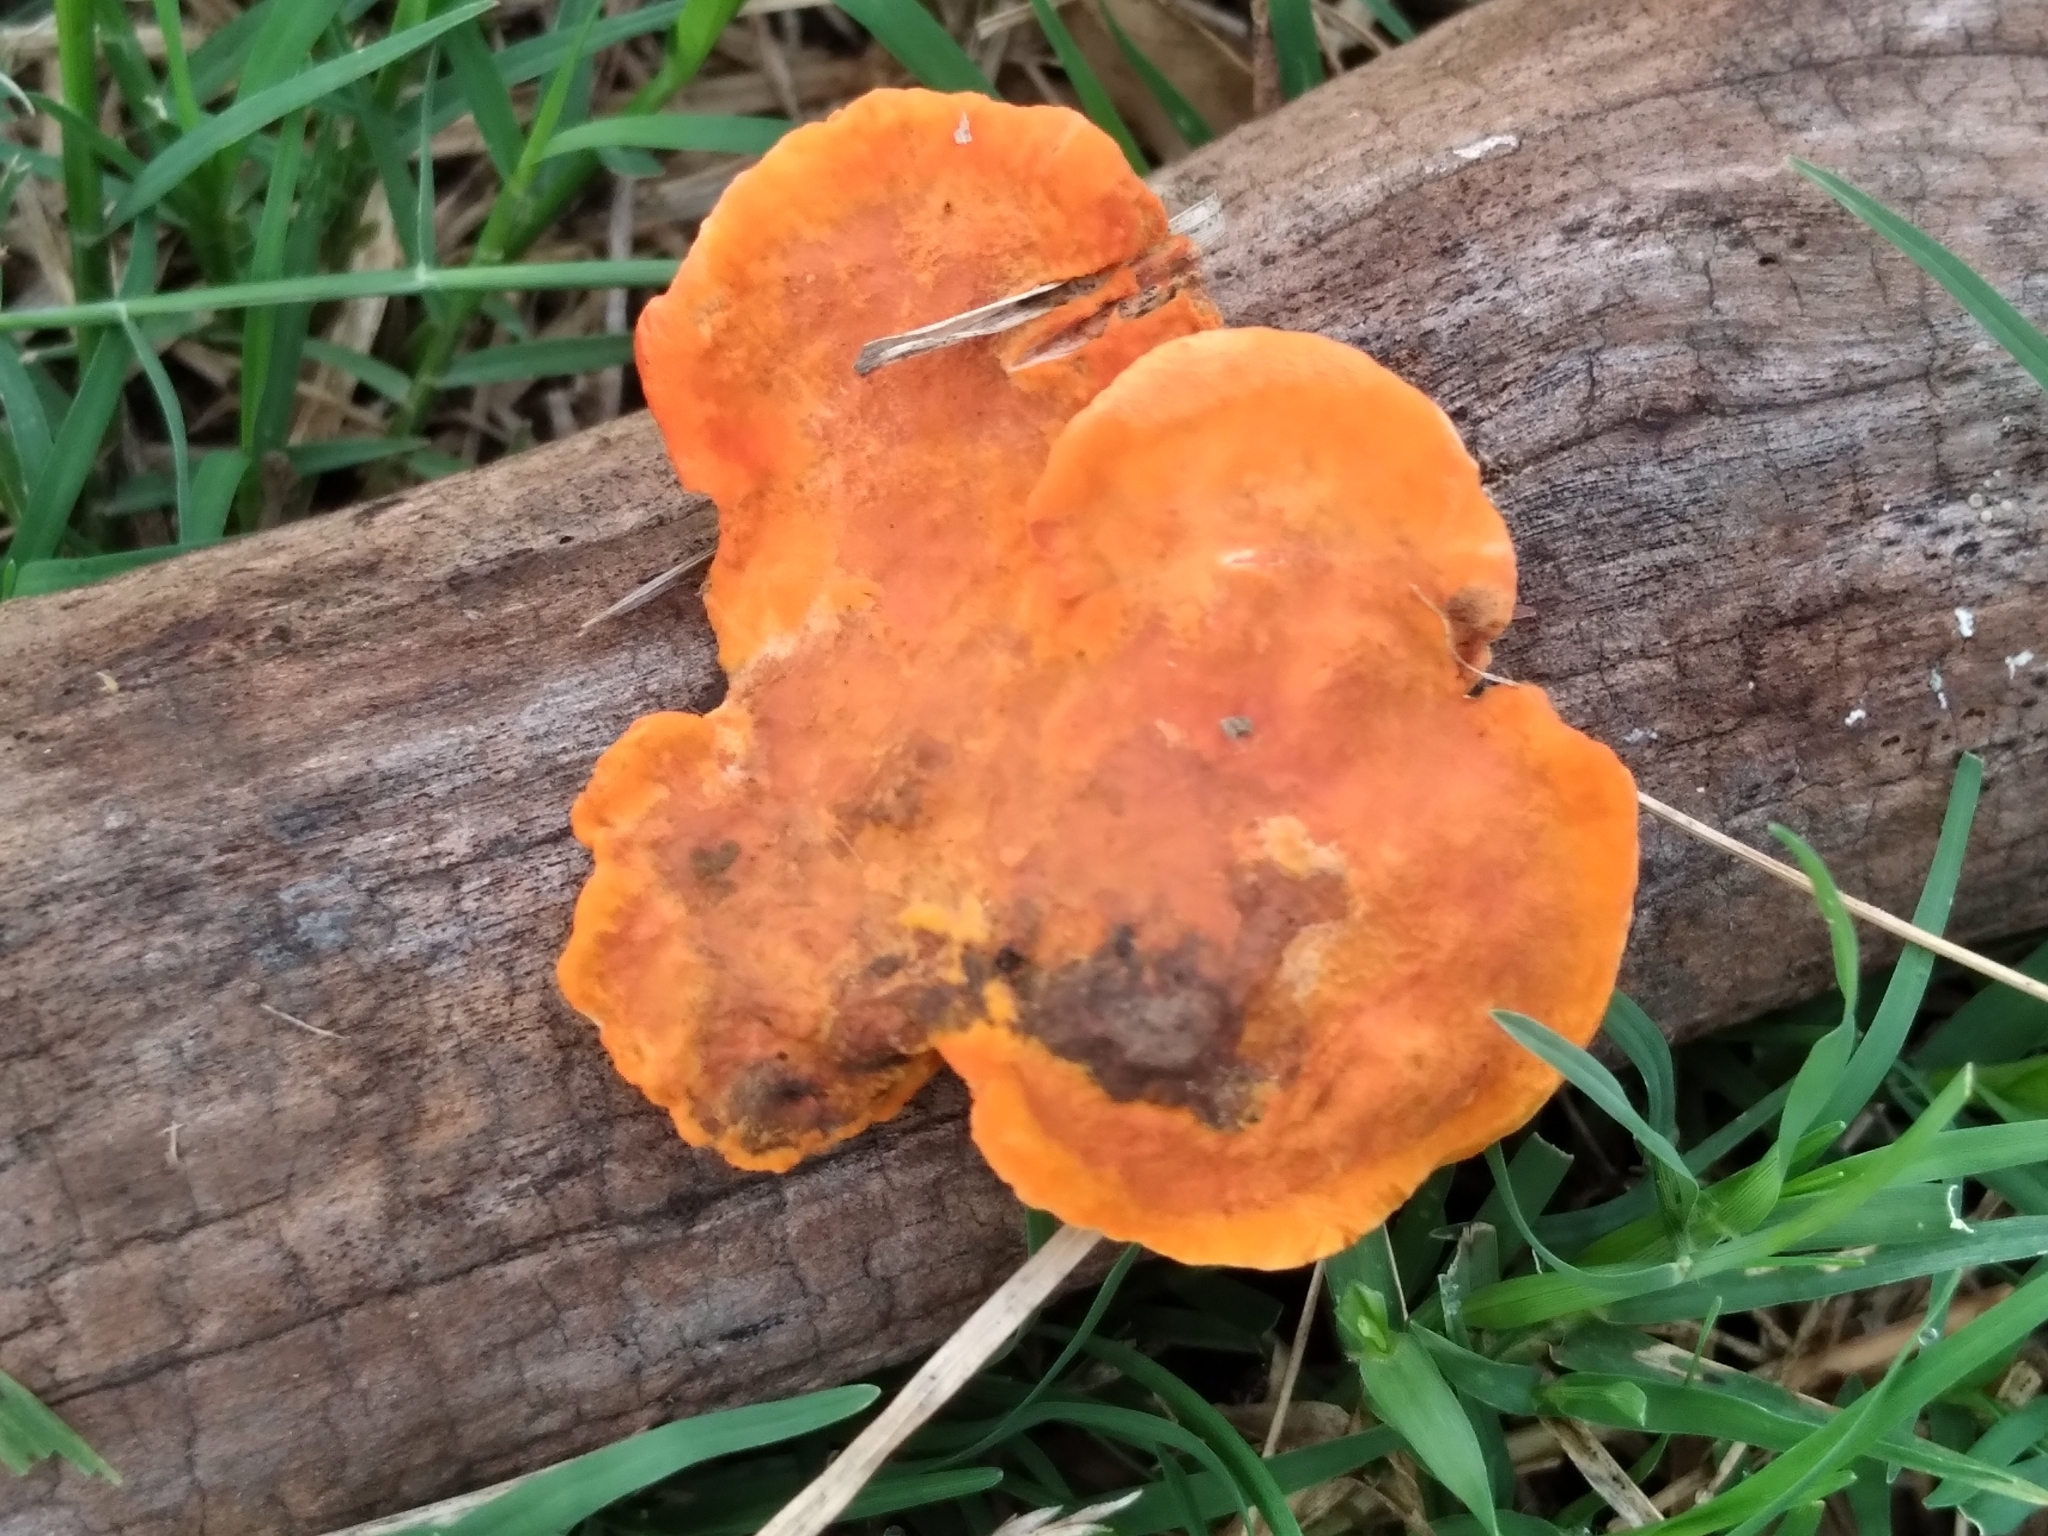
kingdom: Fungi
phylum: Basidiomycota
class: Agaricomycetes
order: Polyporales
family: Polyporaceae
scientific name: Polyporaceae
